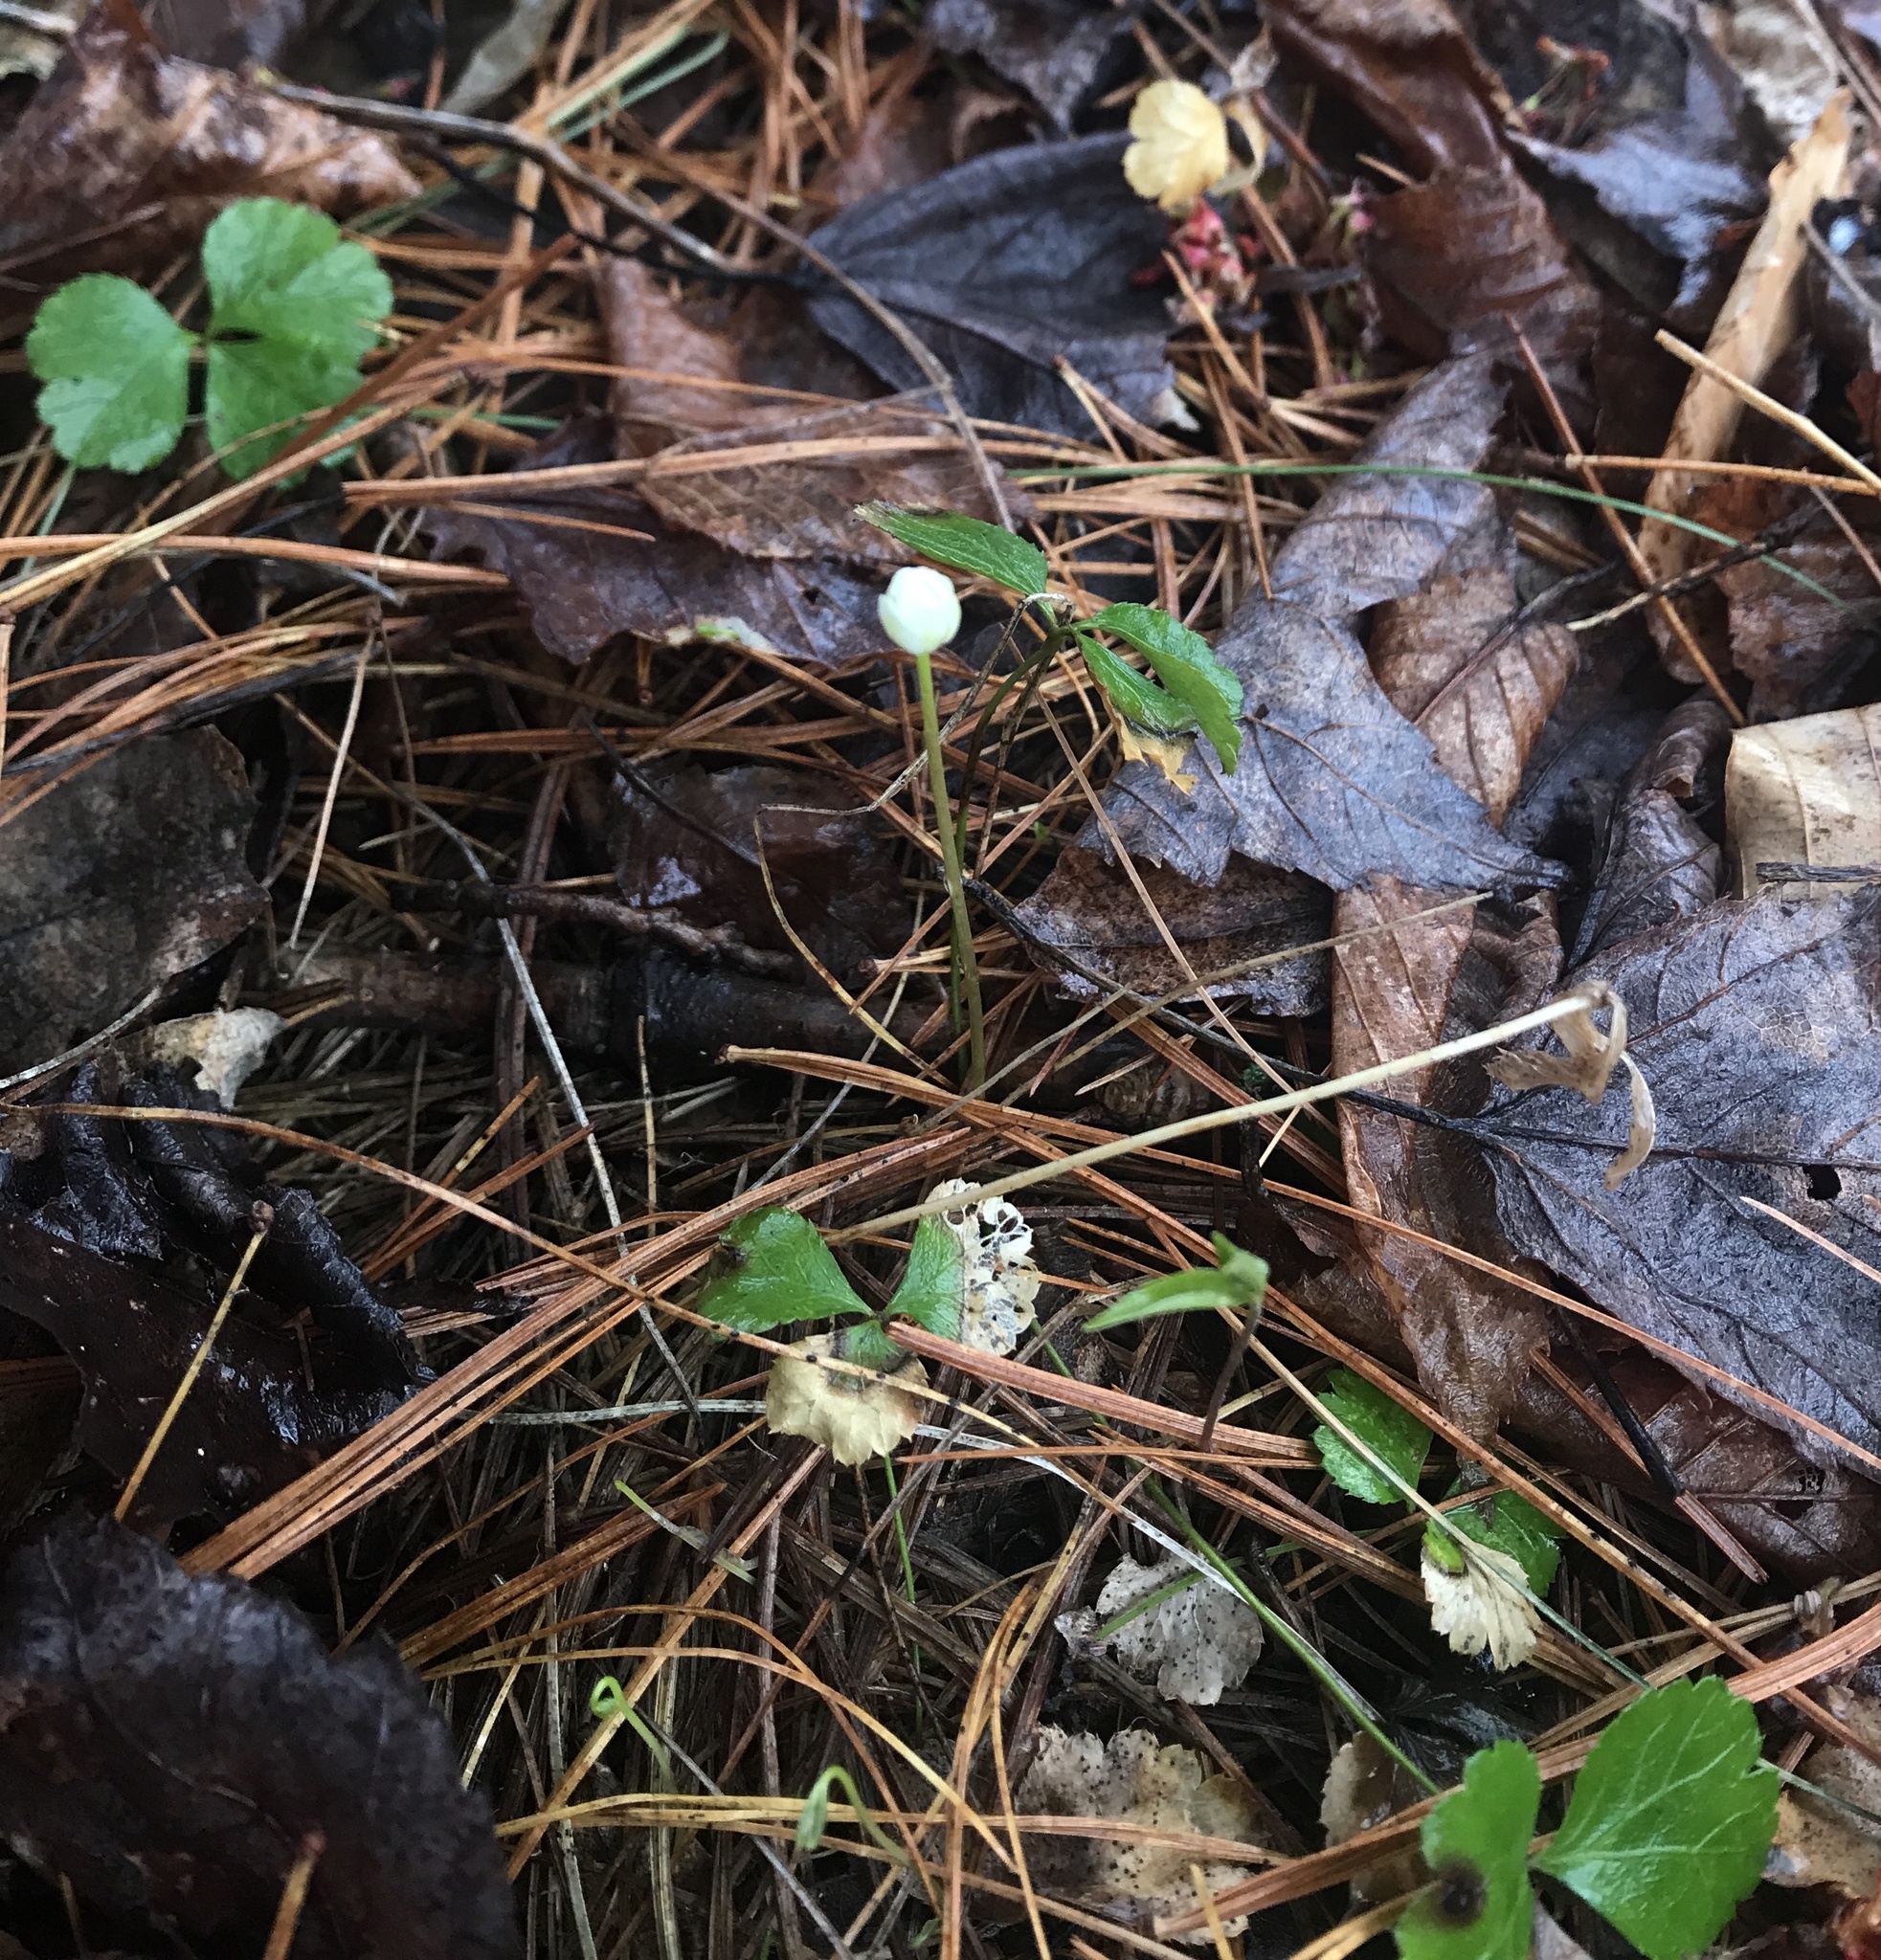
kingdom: Plantae
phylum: Tracheophyta
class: Magnoliopsida
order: Ranunculales
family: Ranunculaceae
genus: Coptis
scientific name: Coptis trifolia
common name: Canker-root
